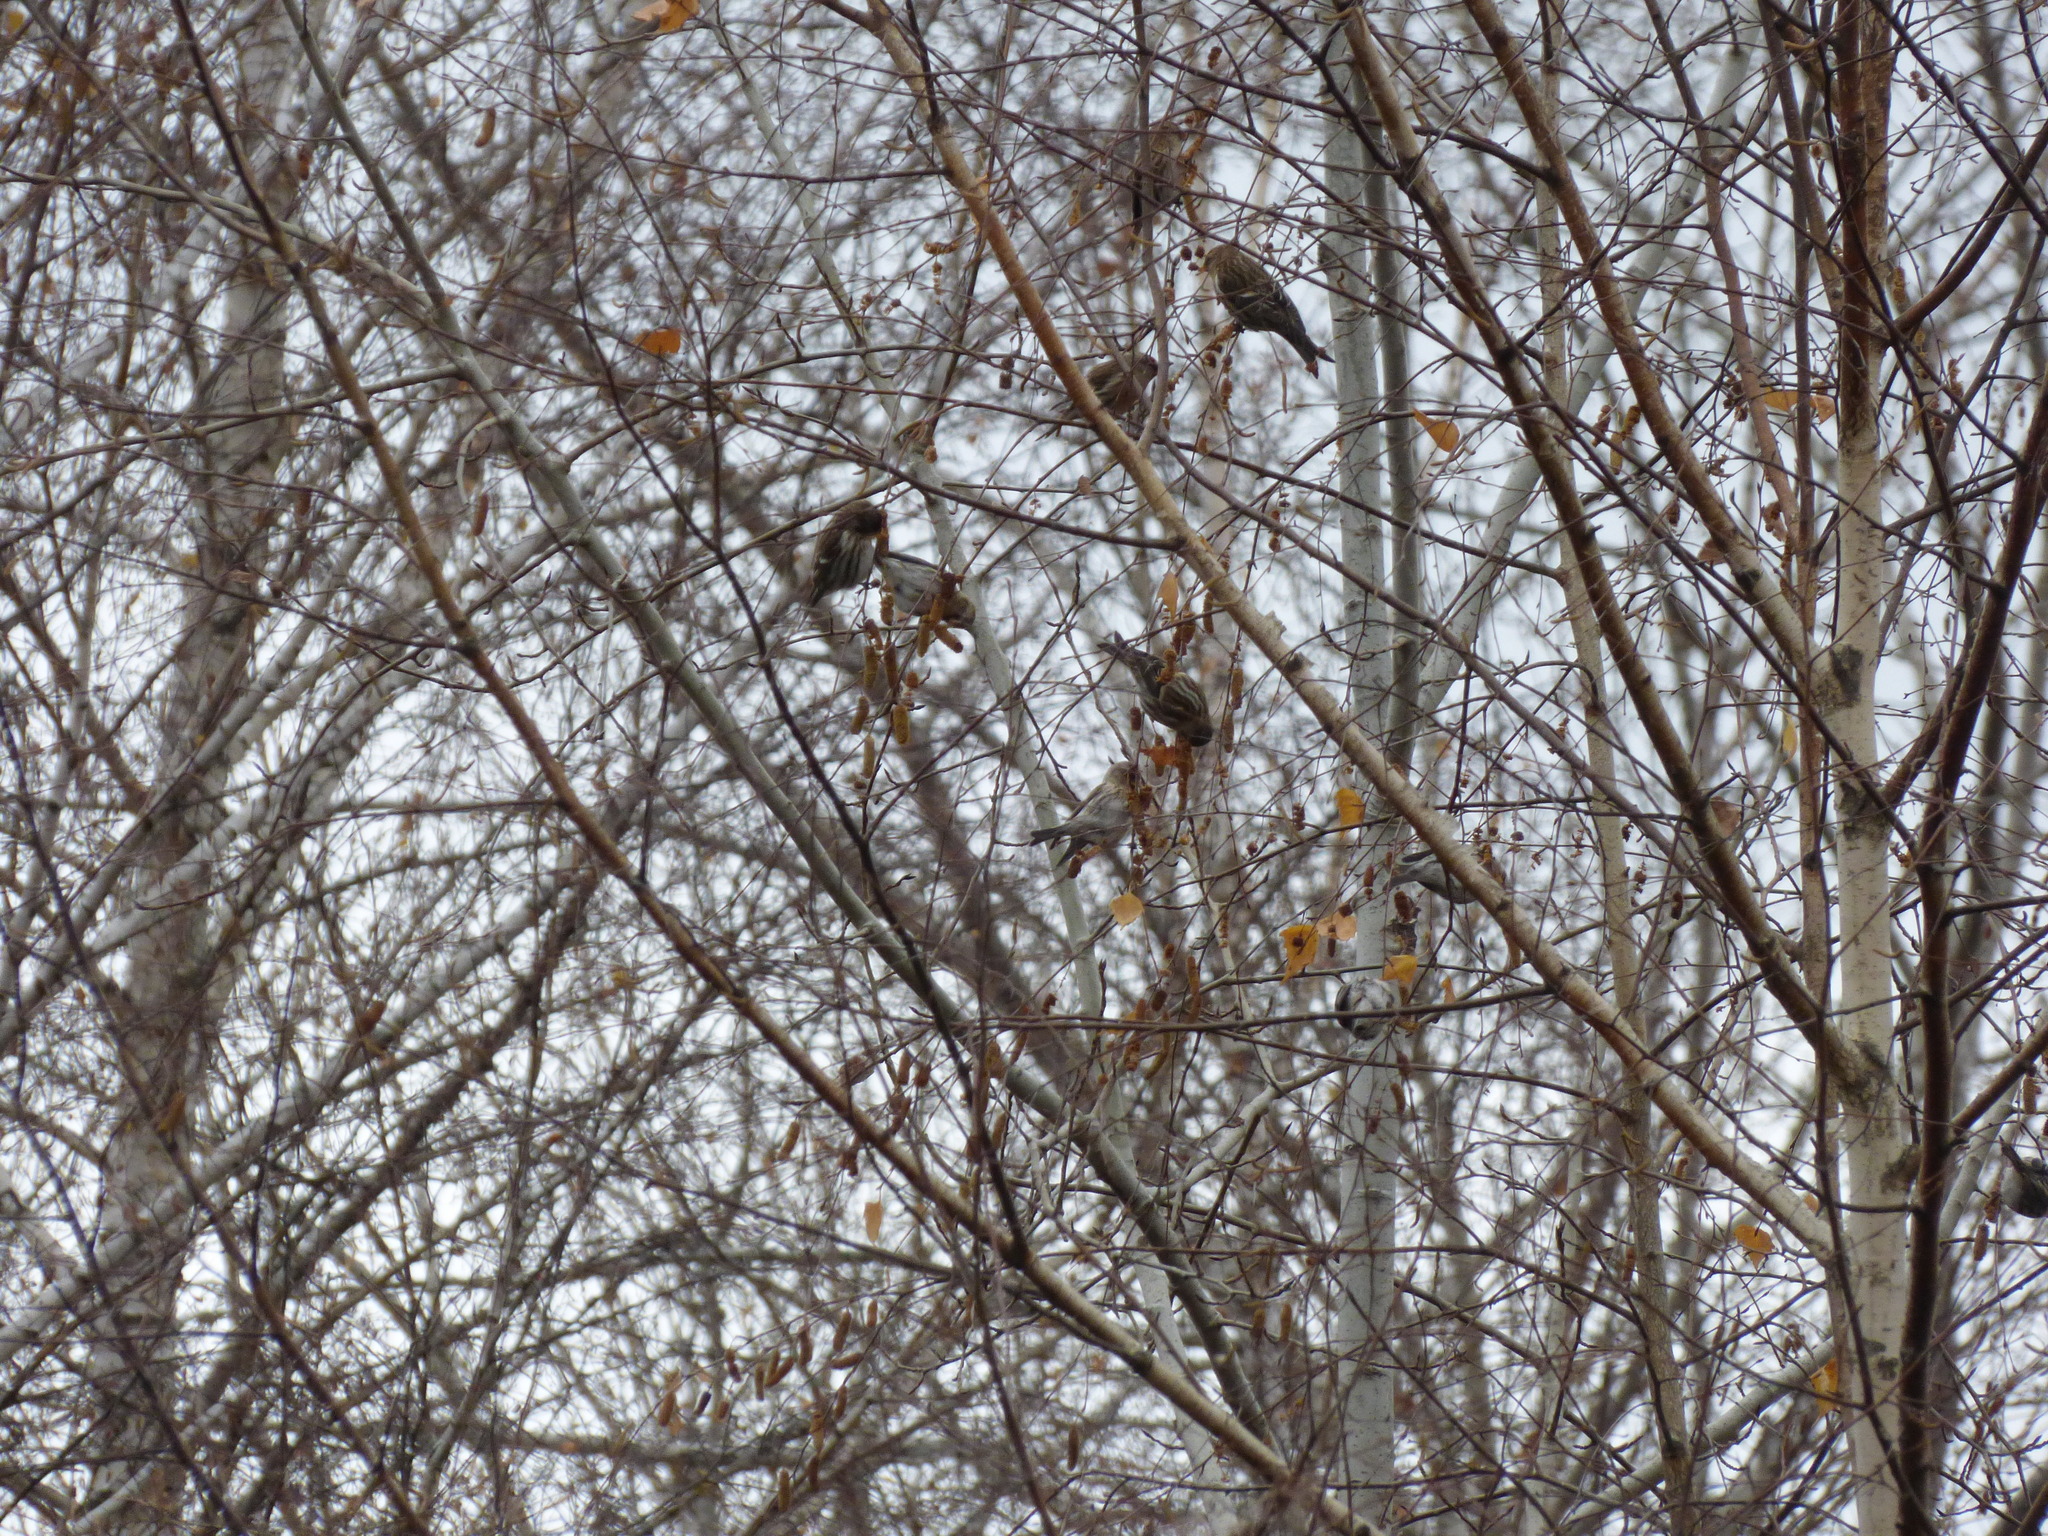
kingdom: Animalia
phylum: Chordata
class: Aves
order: Passeriformes
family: Fringillidae
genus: Acanthis
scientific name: Acanthis flammea
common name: Common redpoll
